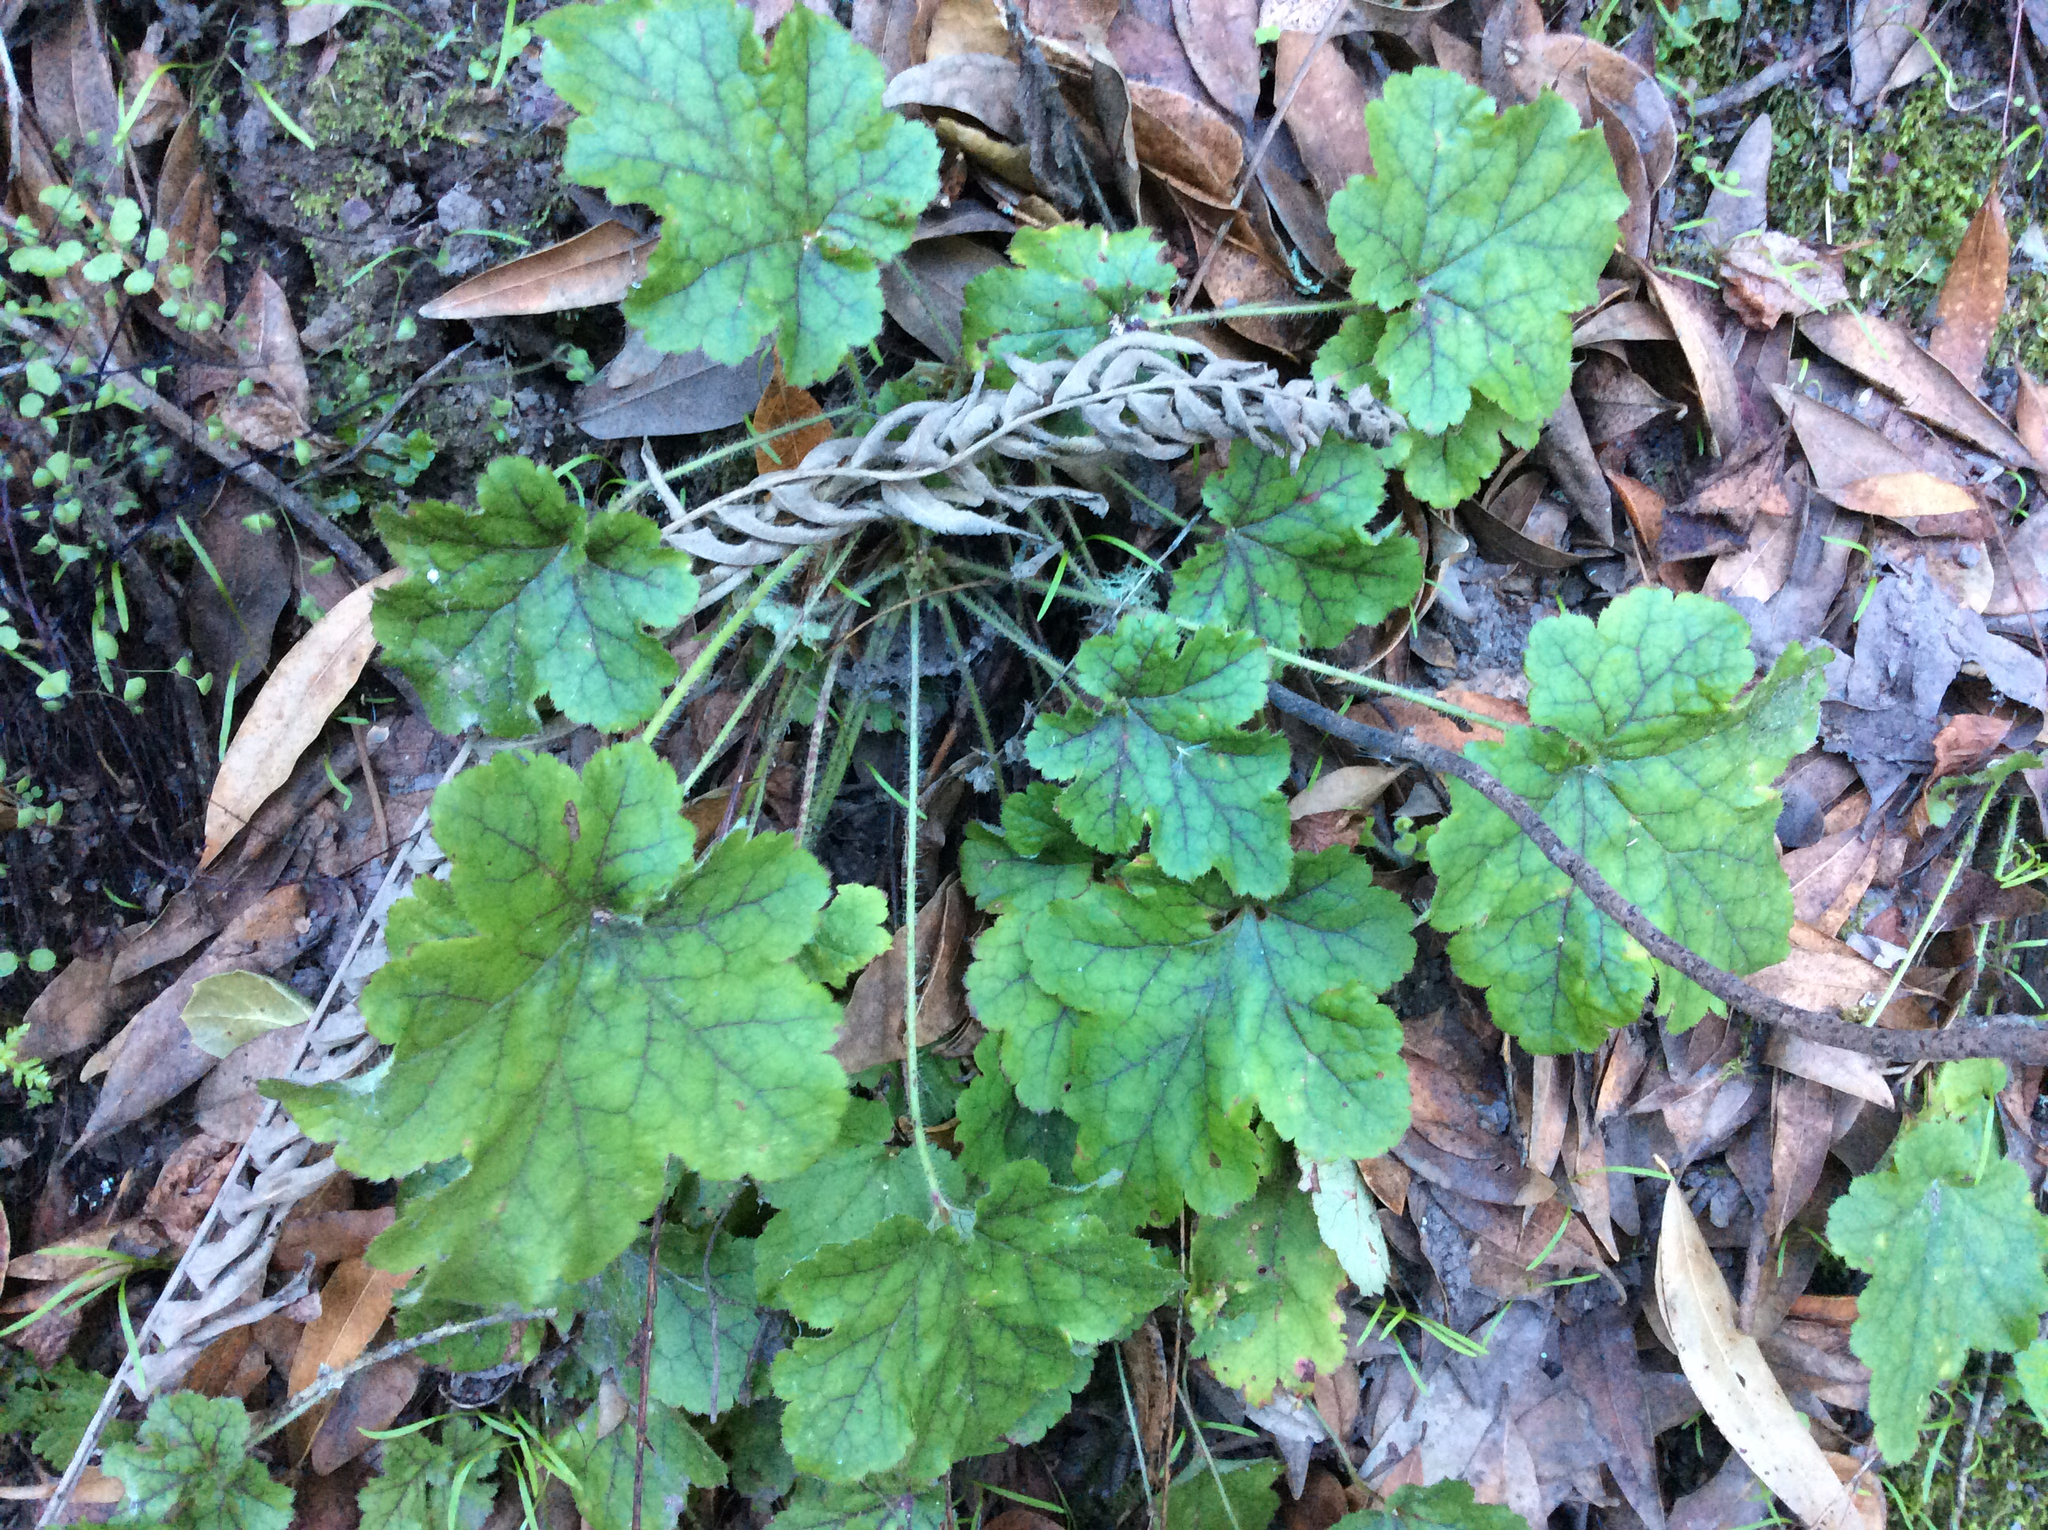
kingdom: Plantae
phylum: Tracheophyta
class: Magnoliopsida
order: Saxifragales
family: Saxifragaceae
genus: Heuchera
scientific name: Heuchera micrantha
